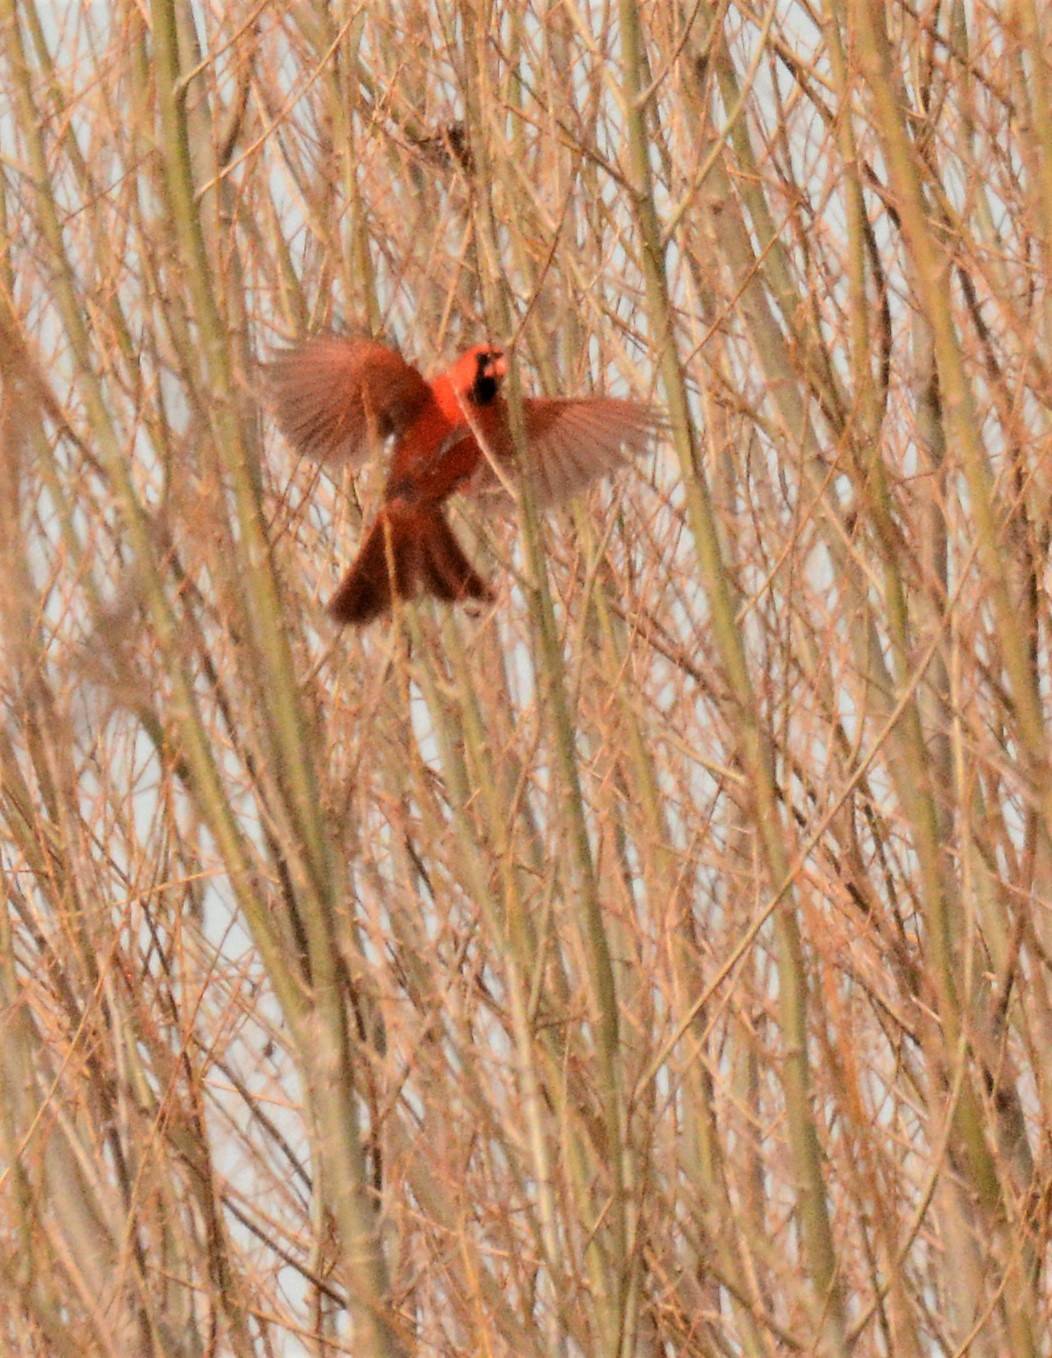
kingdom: Animalia
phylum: Chordata
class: Aves
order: Passeriformes
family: Cardinalidae
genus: Cardinalis
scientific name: Cardinalis cardinalis
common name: Northern cardinal
